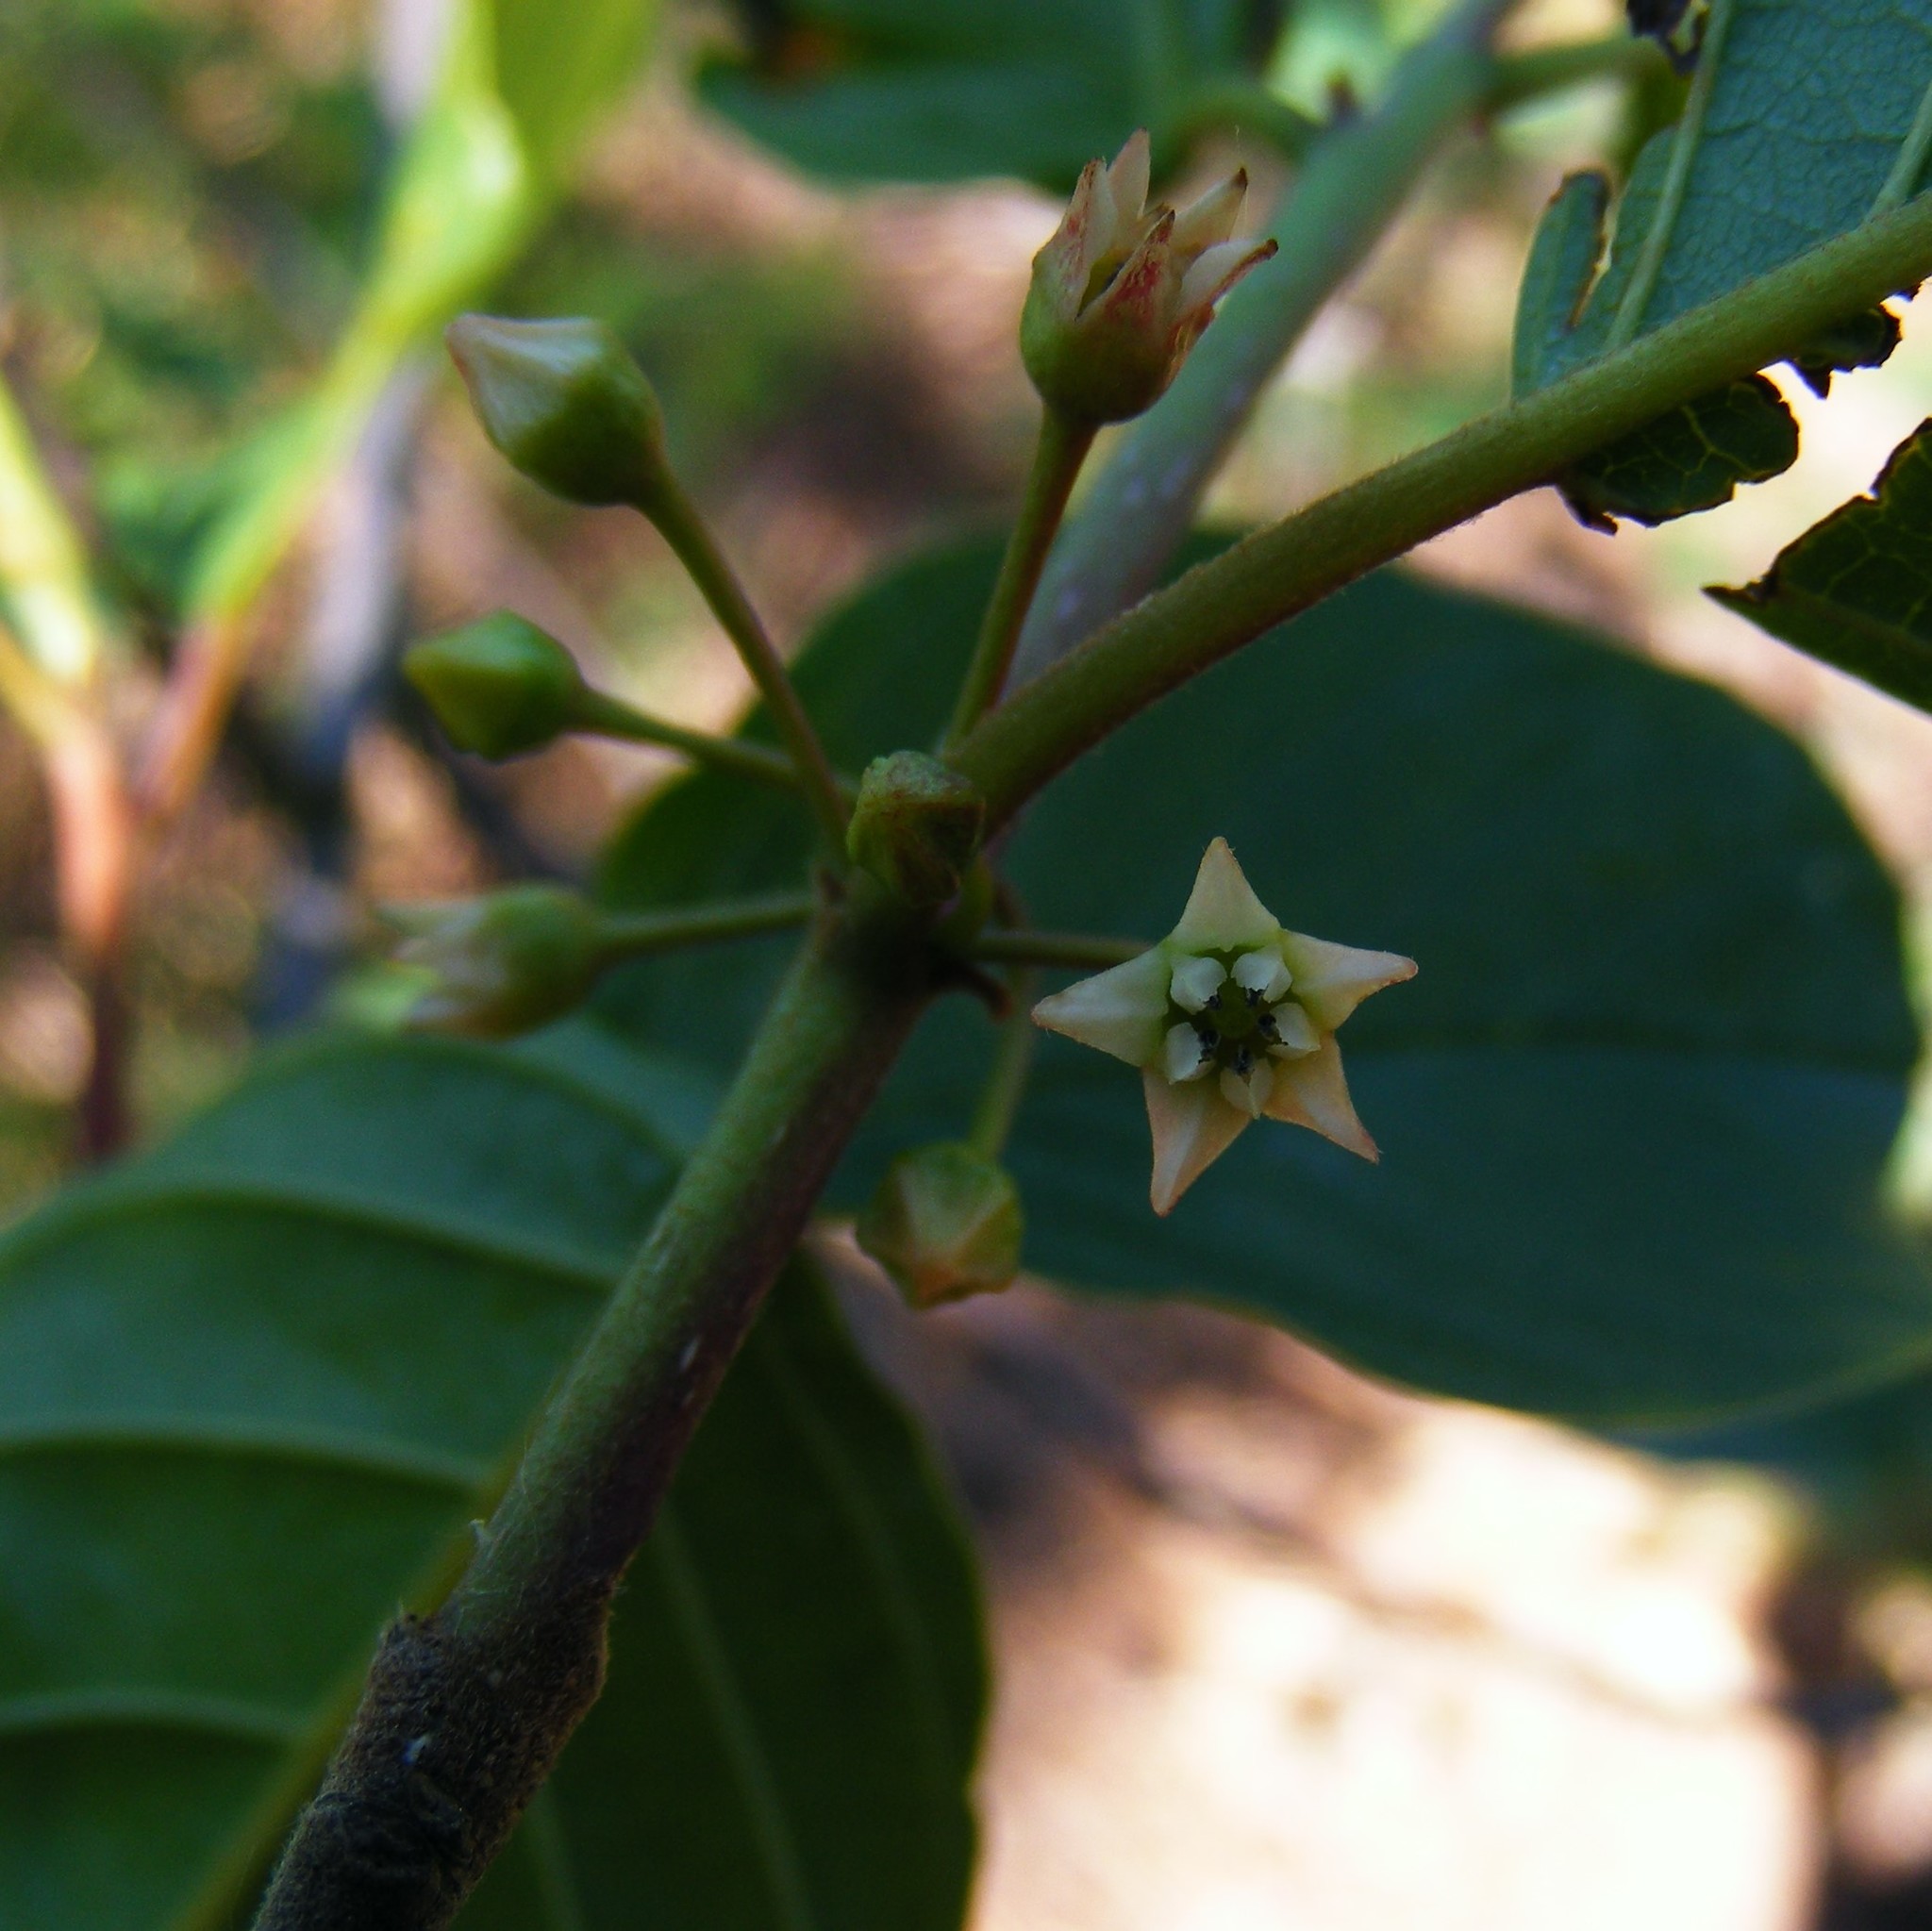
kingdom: Plantae
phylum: Tracheophyta
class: Magnoliopsida
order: Rosales
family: Rhamnaceae
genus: Frangula
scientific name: Frangula alnus
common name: Alder buckthorn
